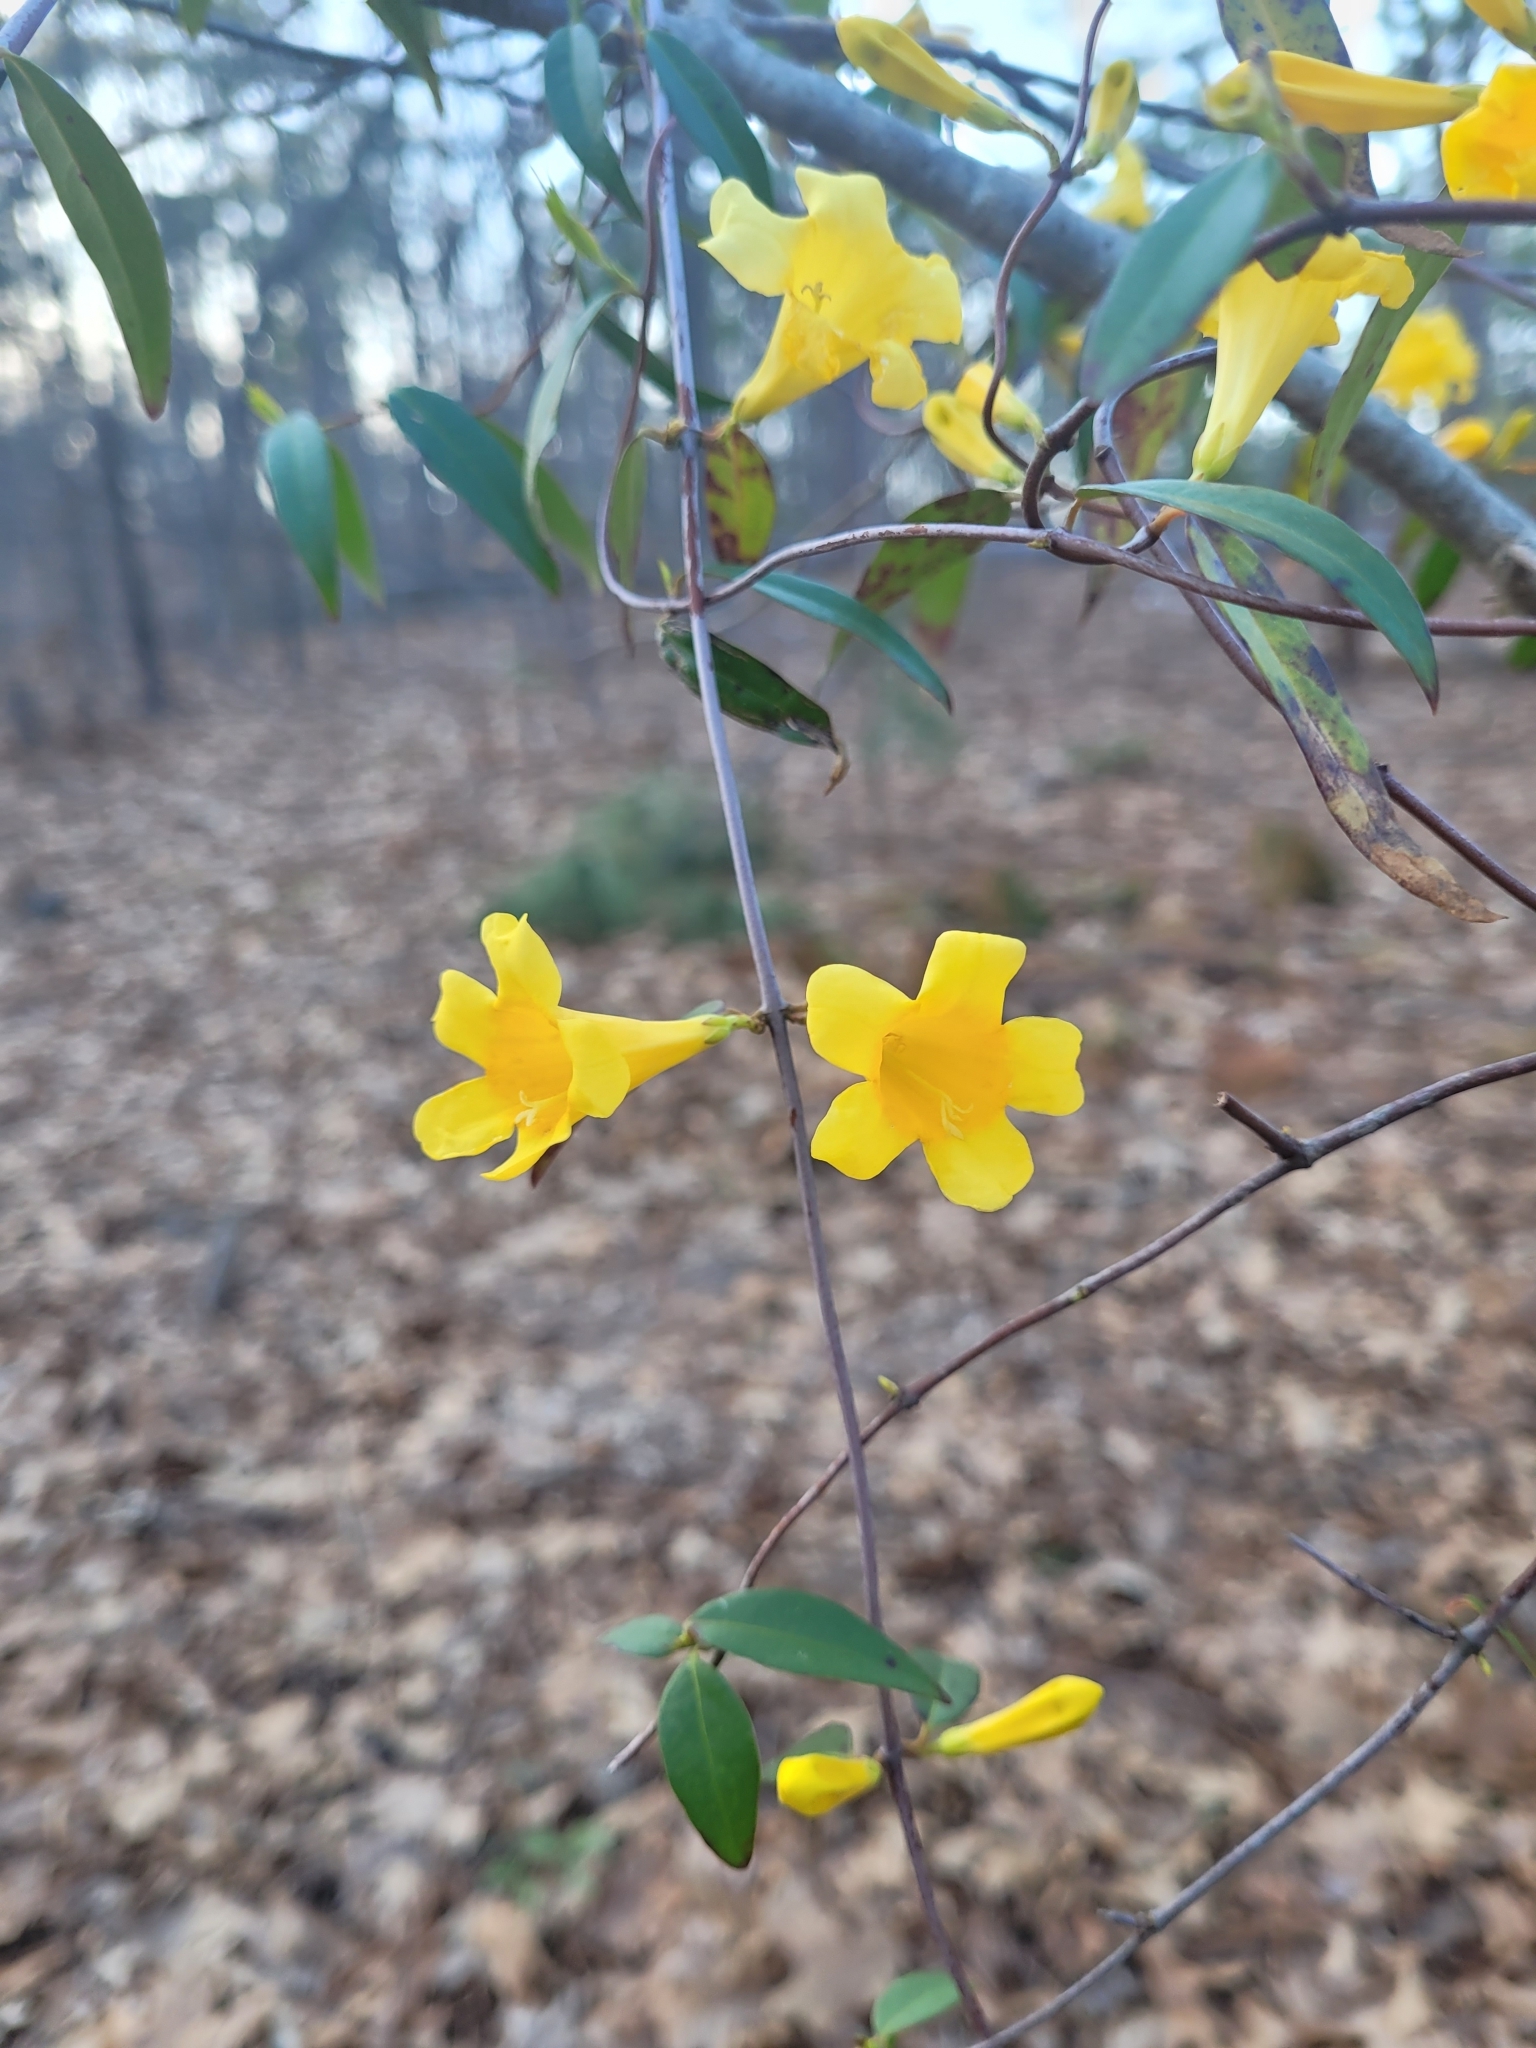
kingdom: Plantae
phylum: Tracheophyta
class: Magnoliopsida
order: Gentianales
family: Gelsemiaceae
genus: Gelsemium
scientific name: Gelsemium sempervirens
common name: Carolina-jasmine
